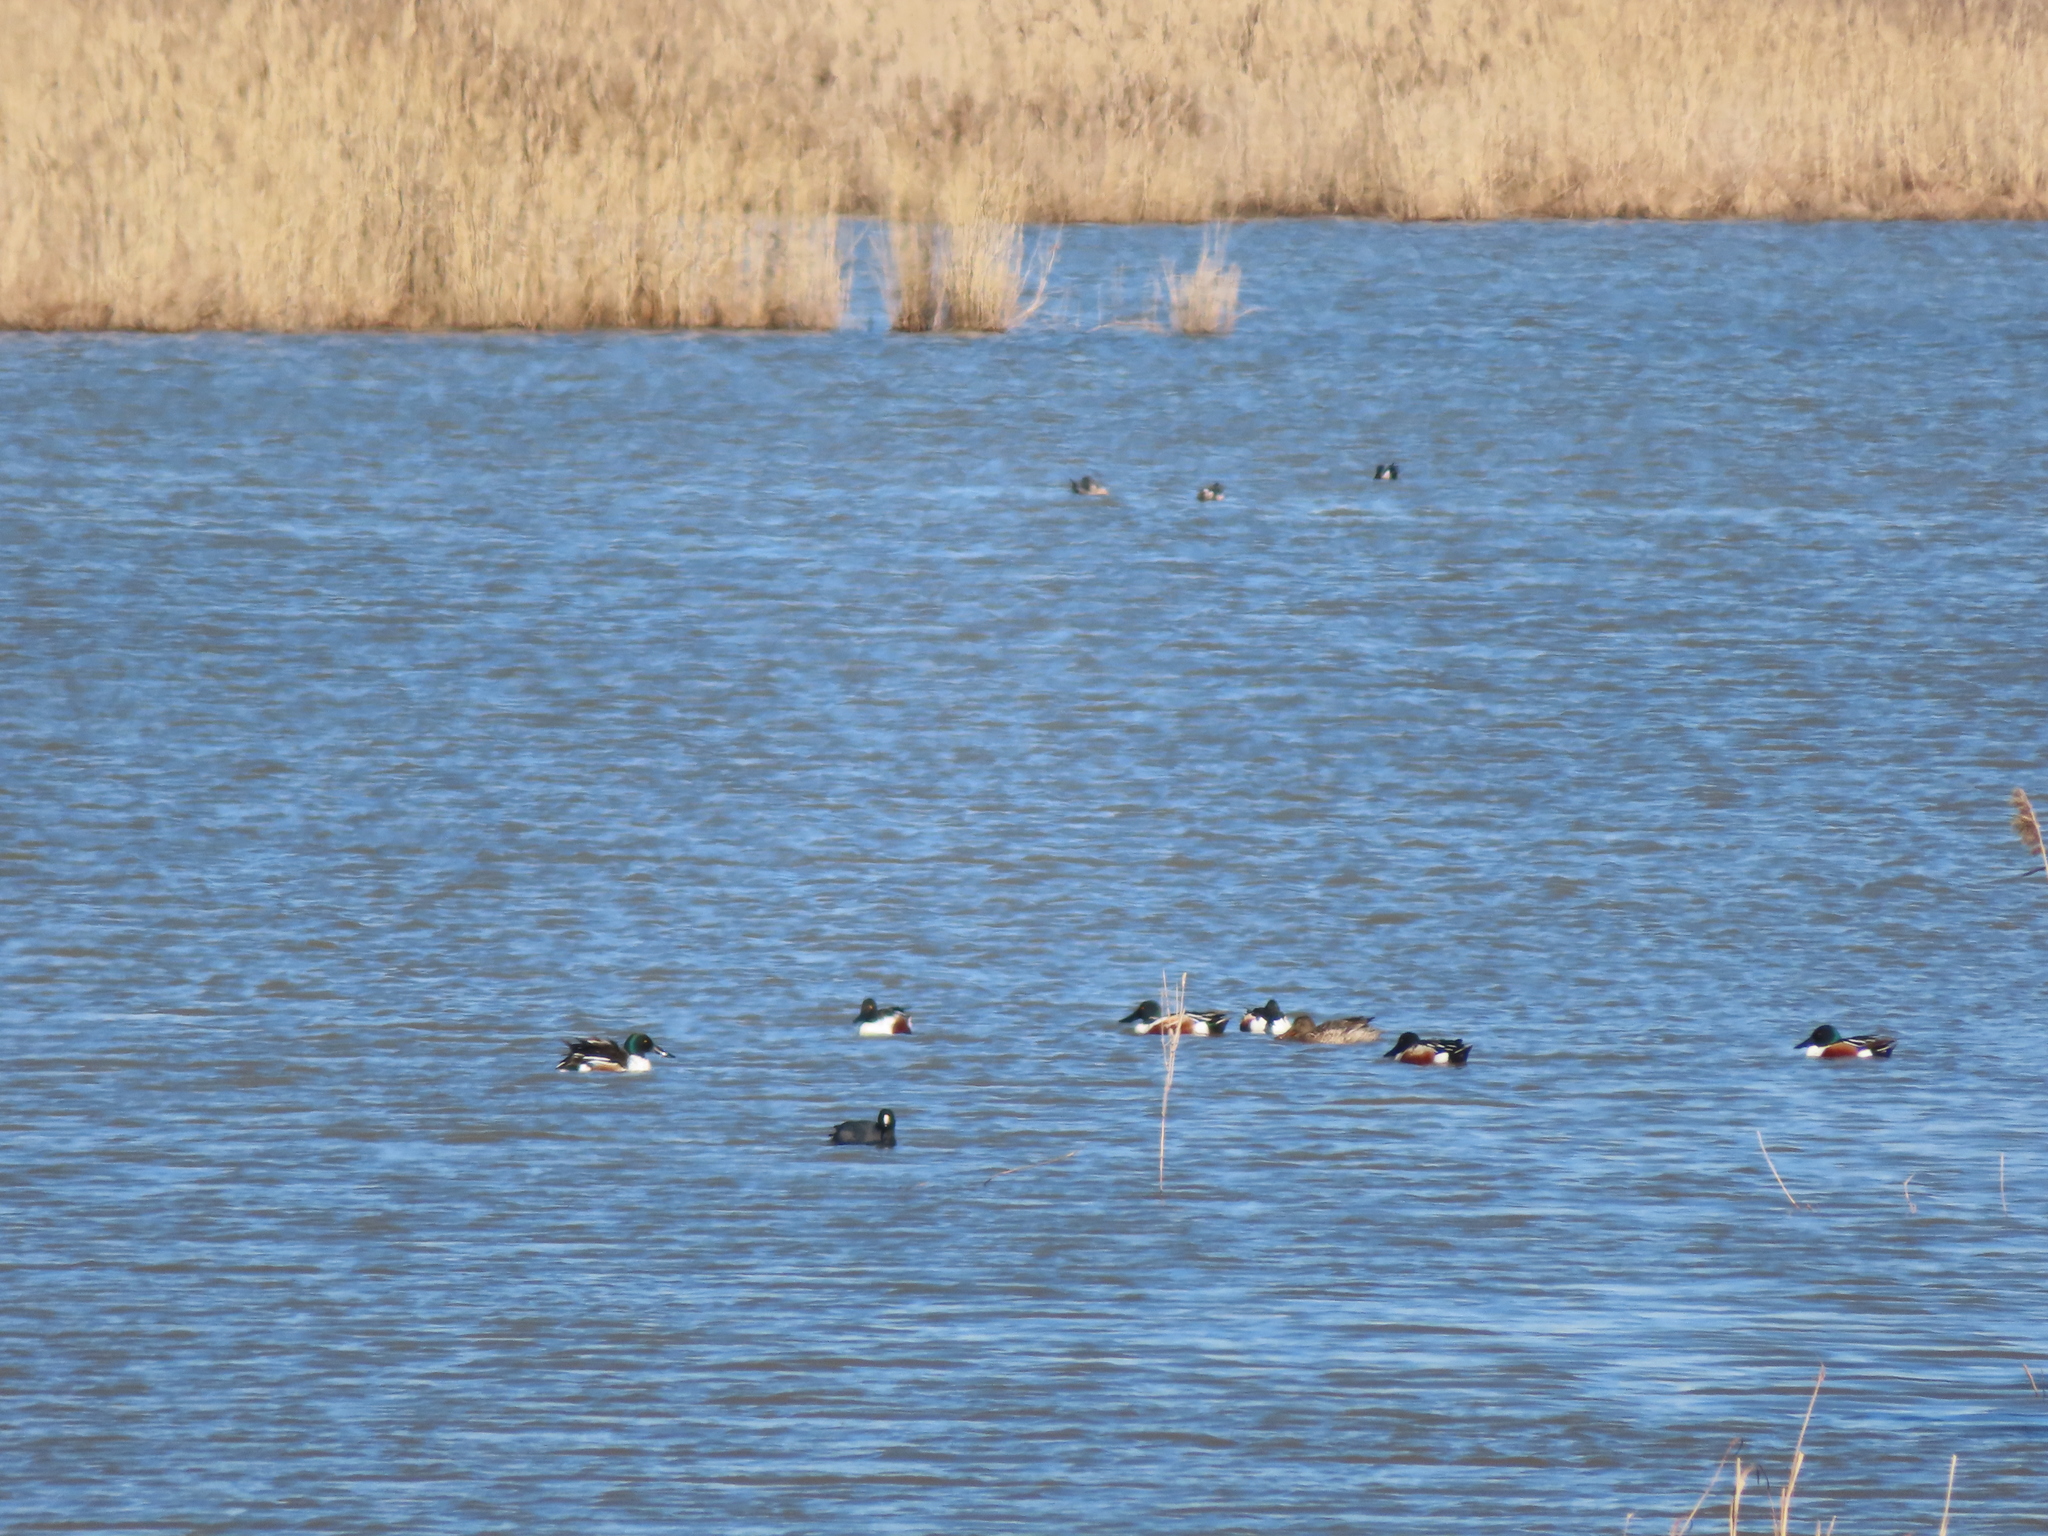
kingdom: Animalia
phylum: Chordata
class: Aves
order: Gruiformes
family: Rallidae
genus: Fulica
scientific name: Fulica americana
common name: American coot
